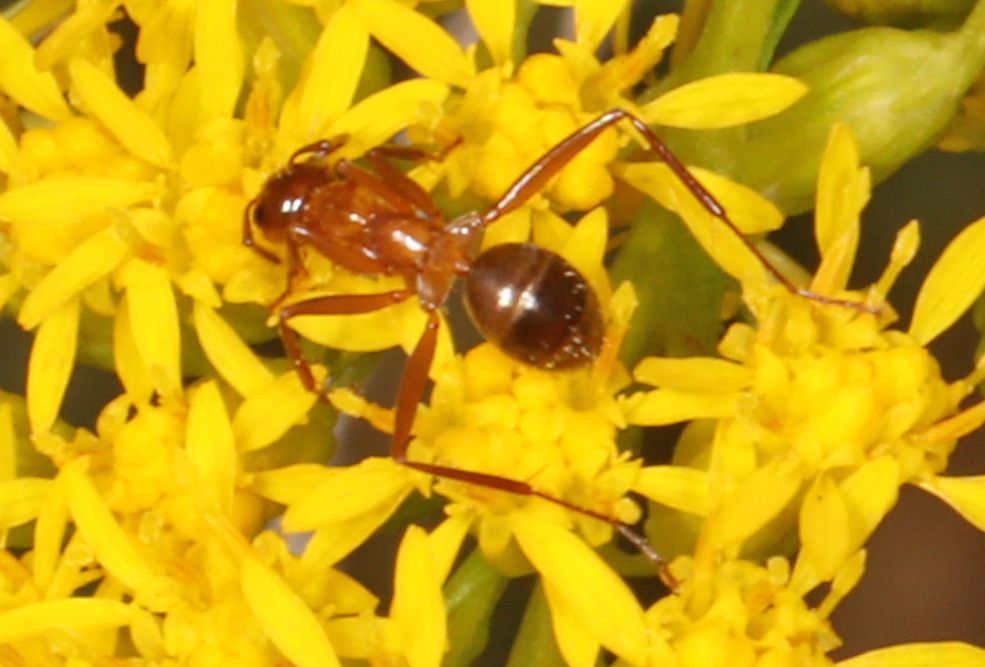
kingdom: Animalia
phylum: Arthropoda
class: Insecta
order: Hymenoptera
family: Formicidae
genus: Formica
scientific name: Formica pallidefulva
